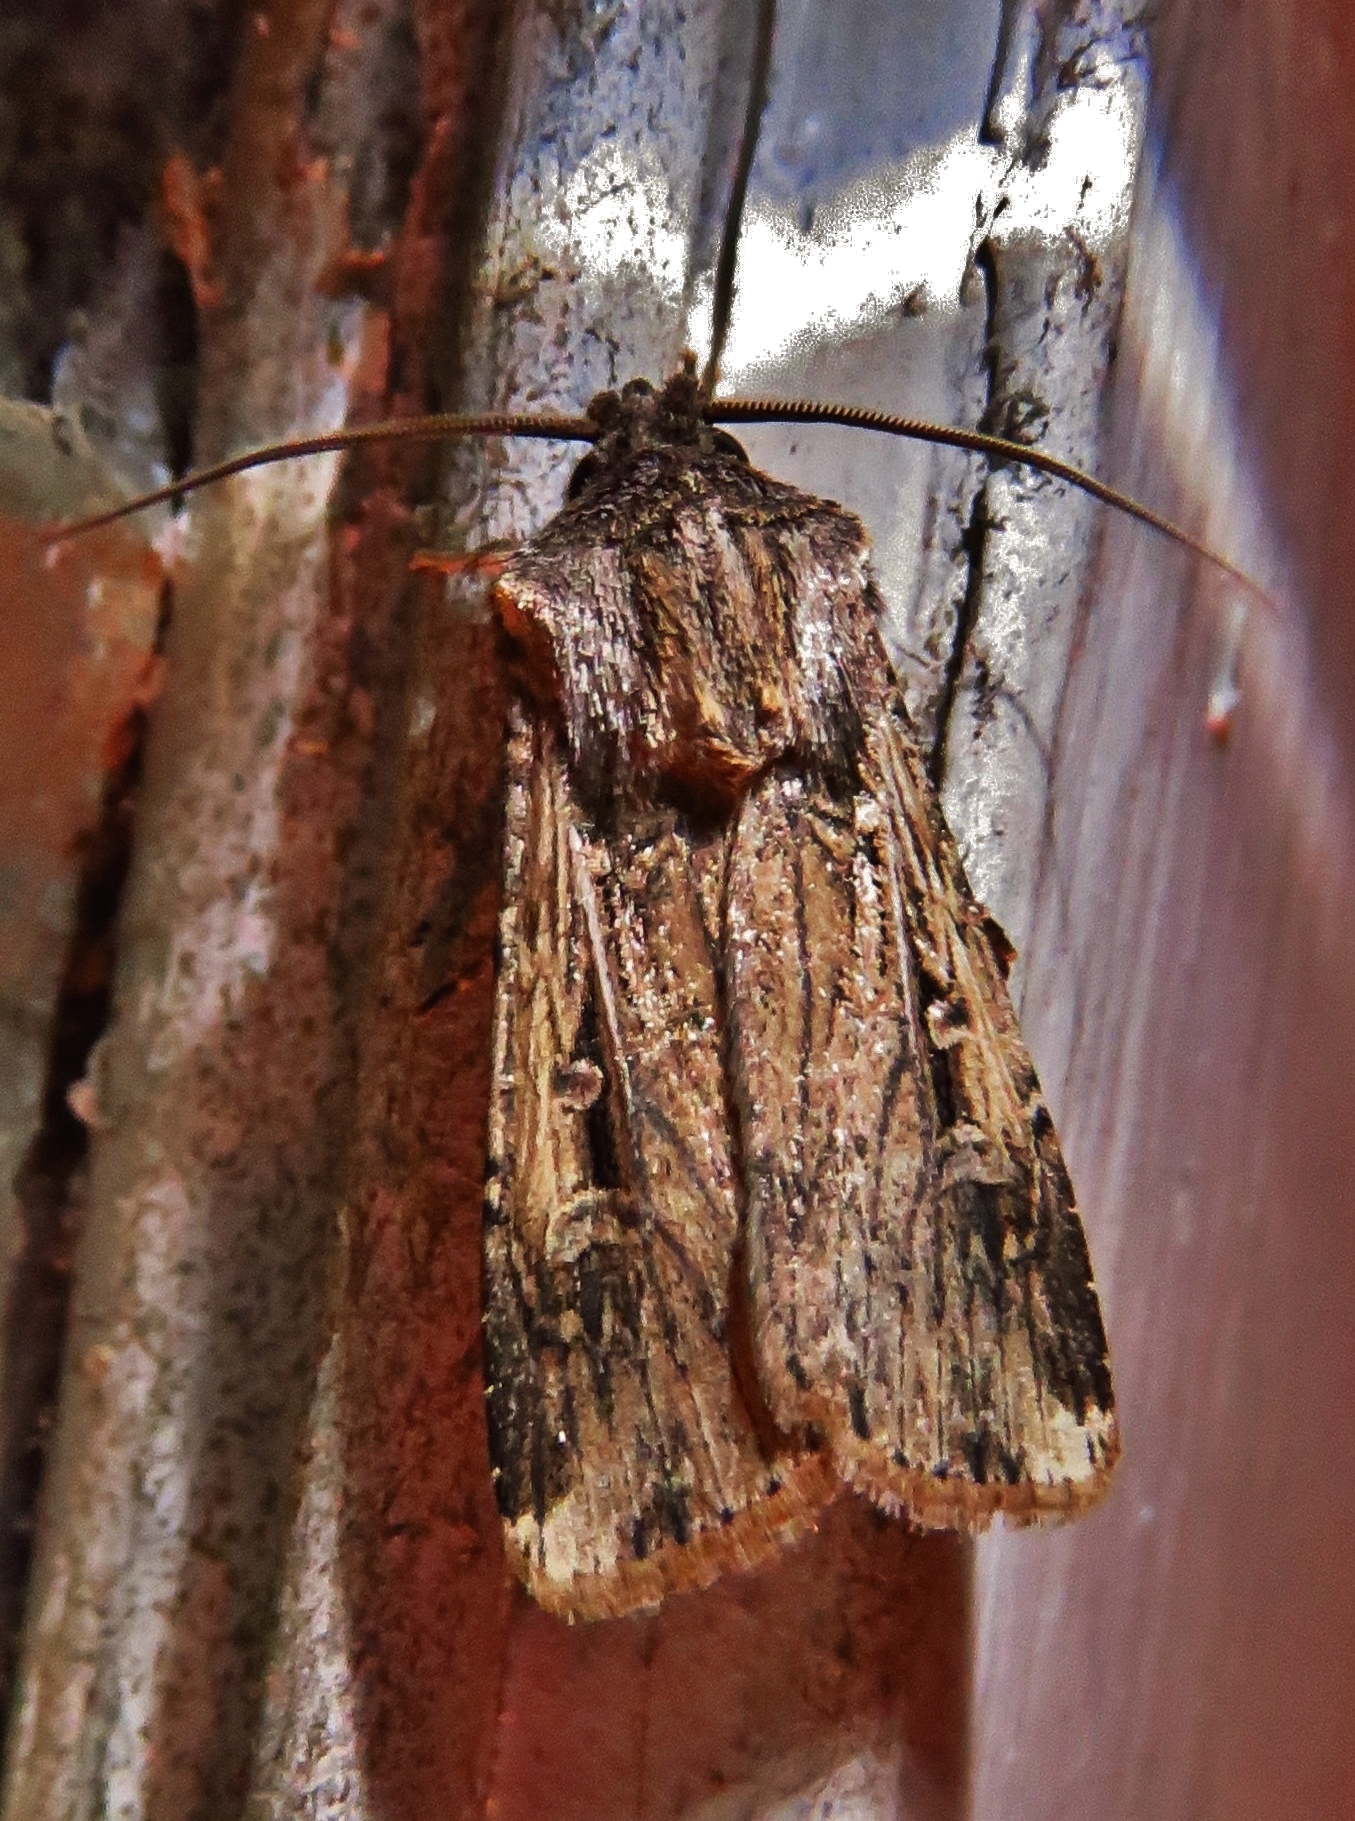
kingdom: Animalia
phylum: Arthropoda
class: Insecta
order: Lepidoptera
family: Noctuidae
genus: Feltia
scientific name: Feltia subterranea
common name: Granulate cutworm
